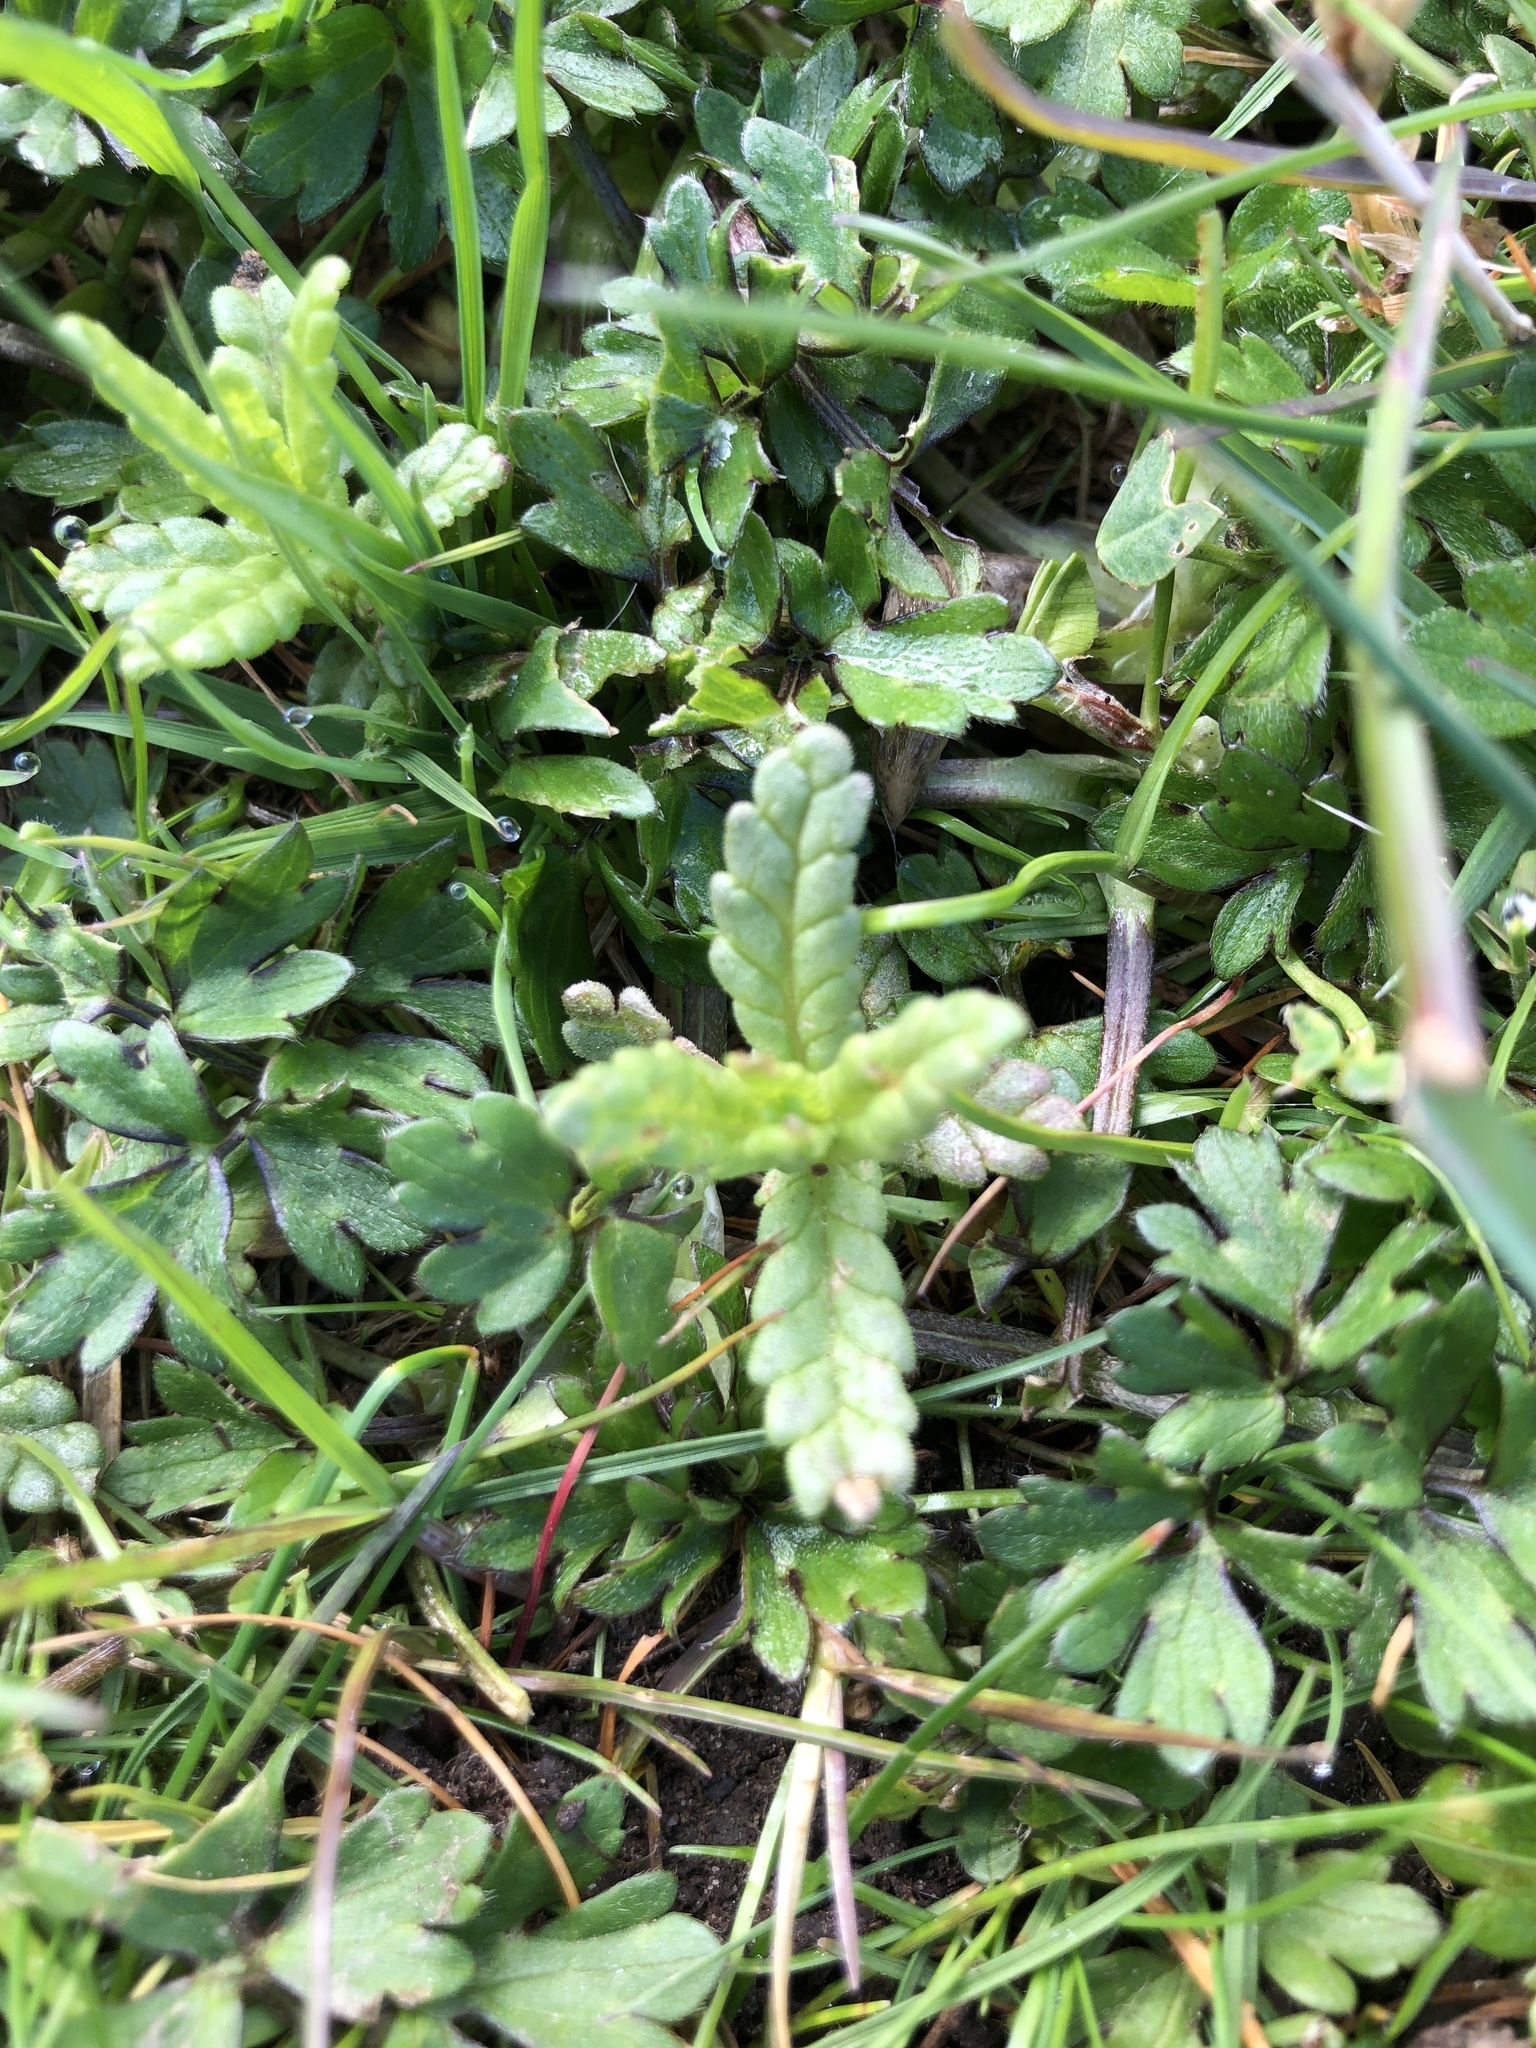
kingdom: Plantae
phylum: Tracheophyta
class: Magnoliopsida
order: Lamiales
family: Orobanchaceae
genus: Rhinanthus
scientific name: Rhinanthus minor
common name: Yellow-rattle
